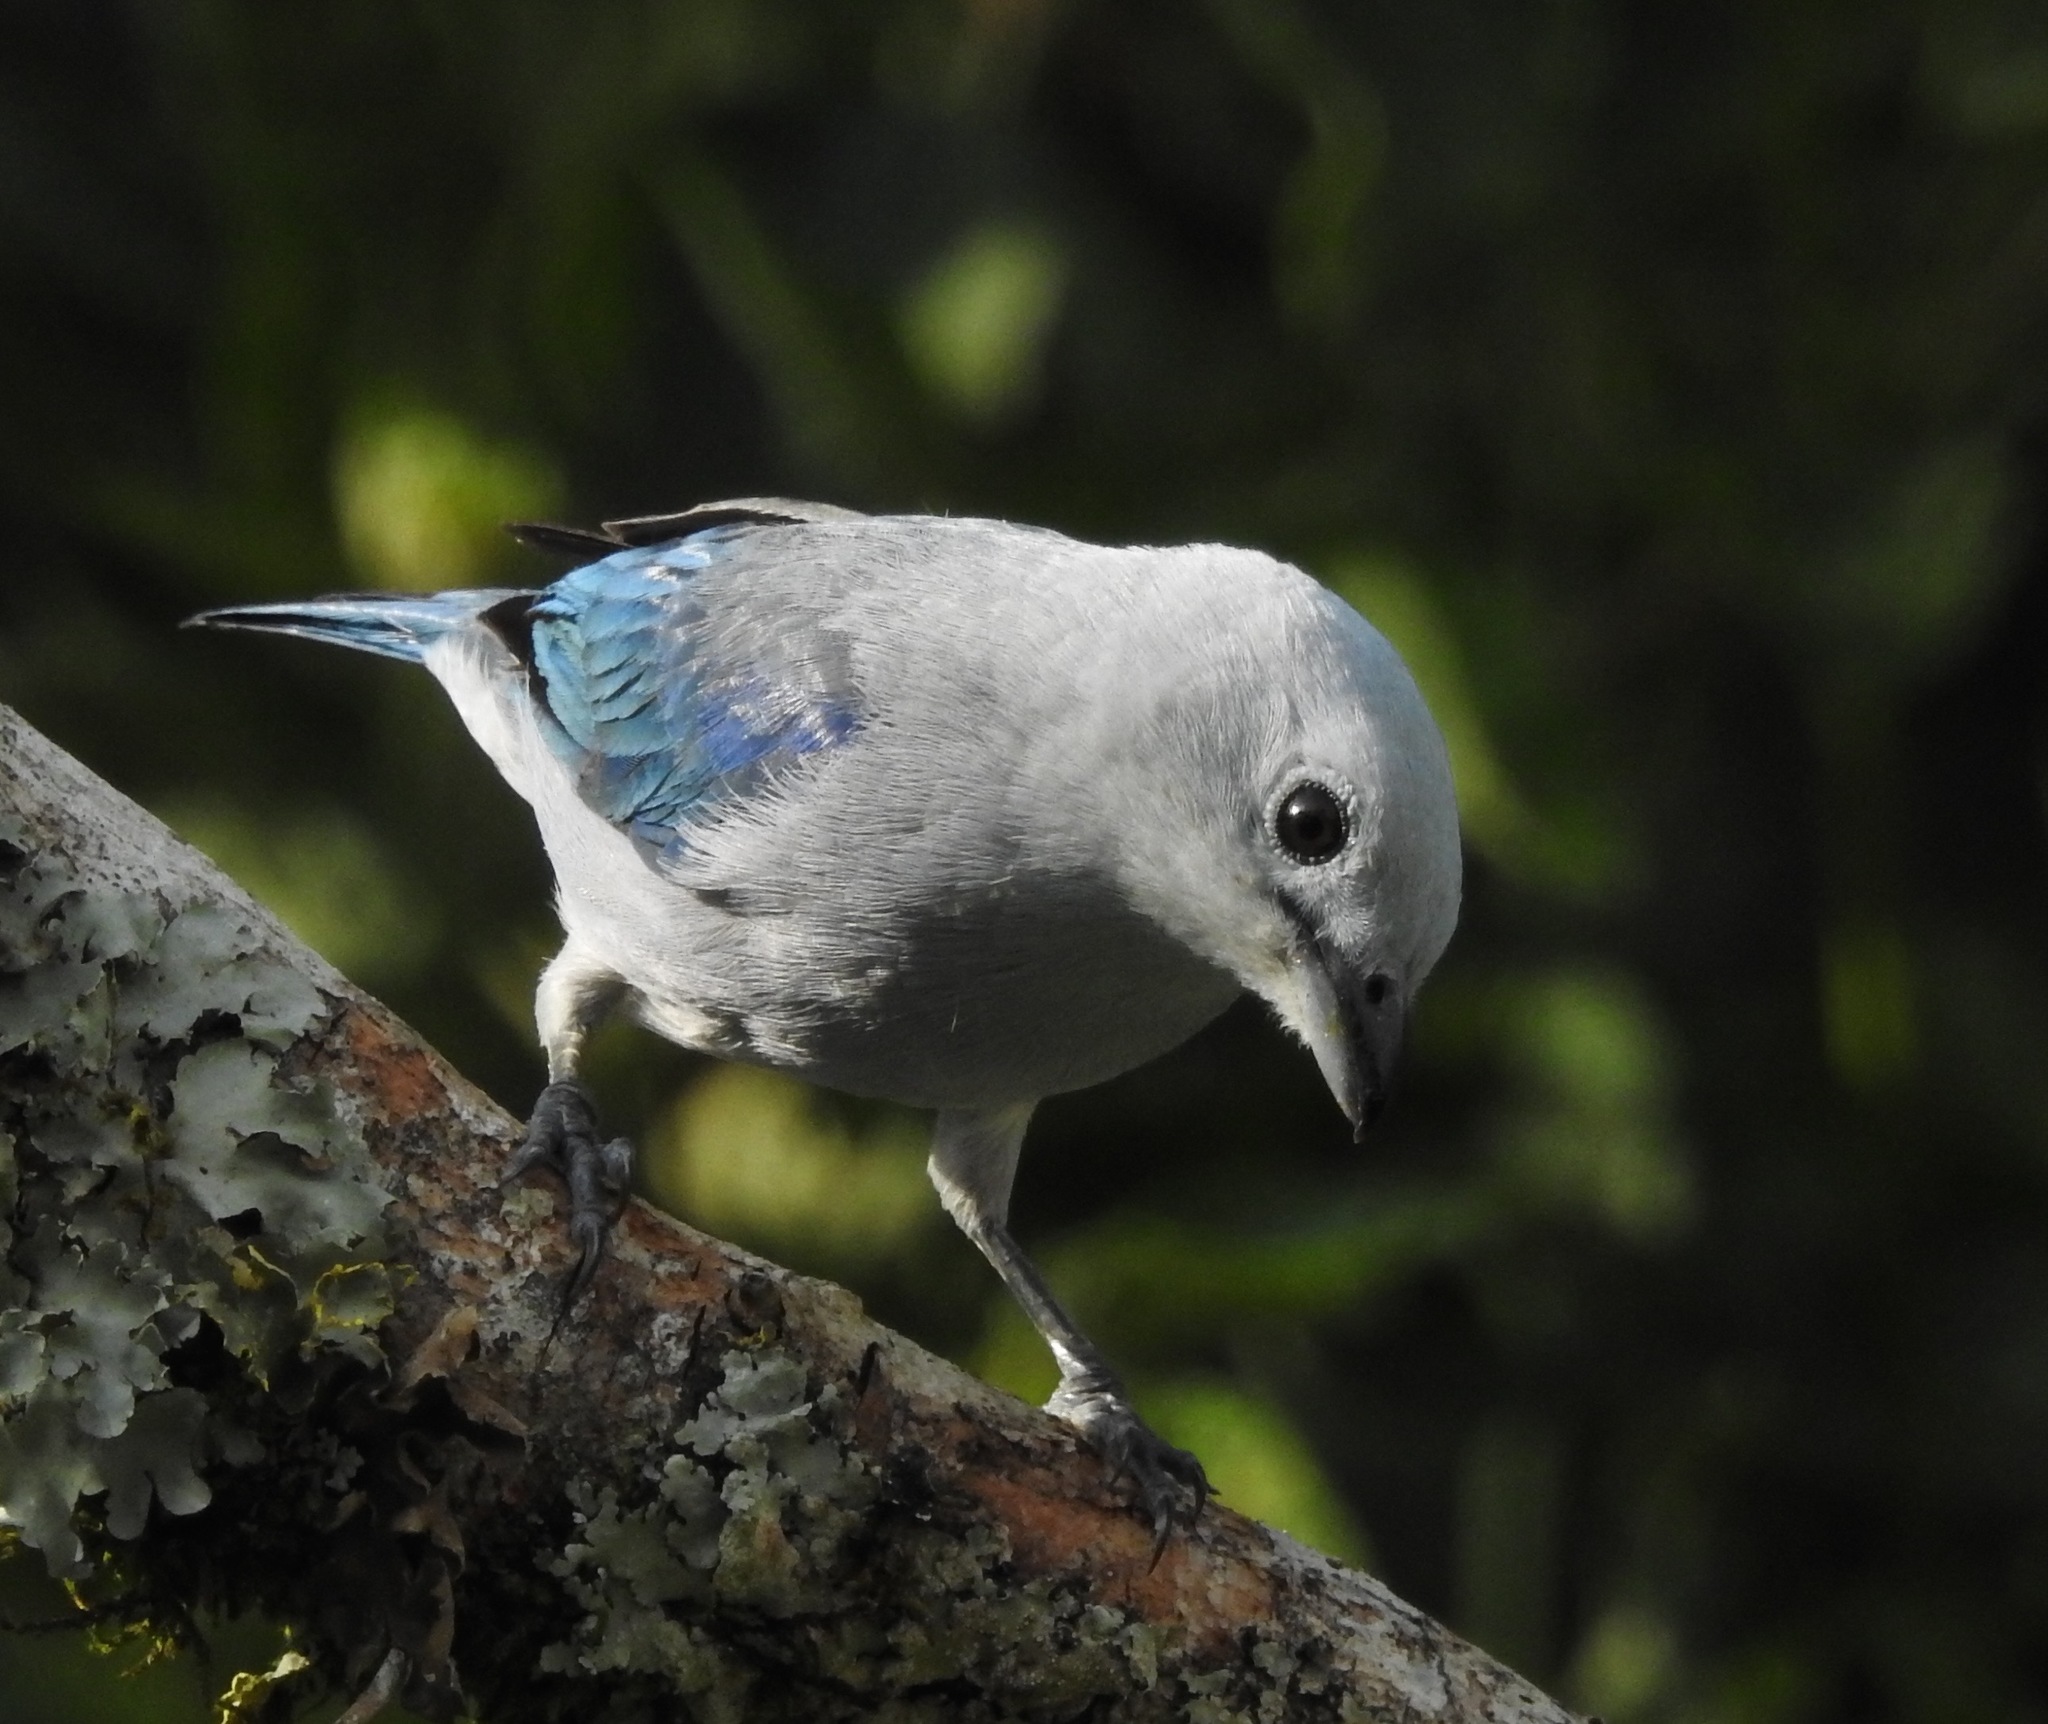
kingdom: Animalia
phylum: Chordata
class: Aves
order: Passeriformes
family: Thraupidae
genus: Thraupis
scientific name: Thraupis episcopus
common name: Blue-grey tanager
